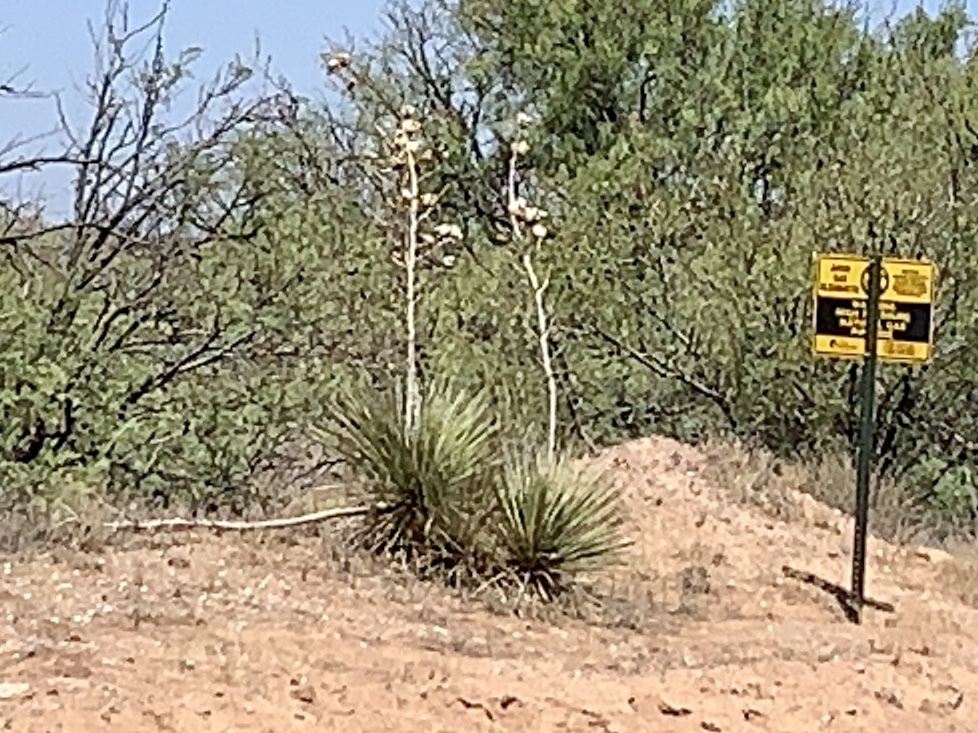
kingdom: Plantae
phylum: Tracheophyta
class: Liliopsida
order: Asparagales
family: Asparagaceae
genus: Yucca
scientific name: Yucca elata
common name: Palmella
